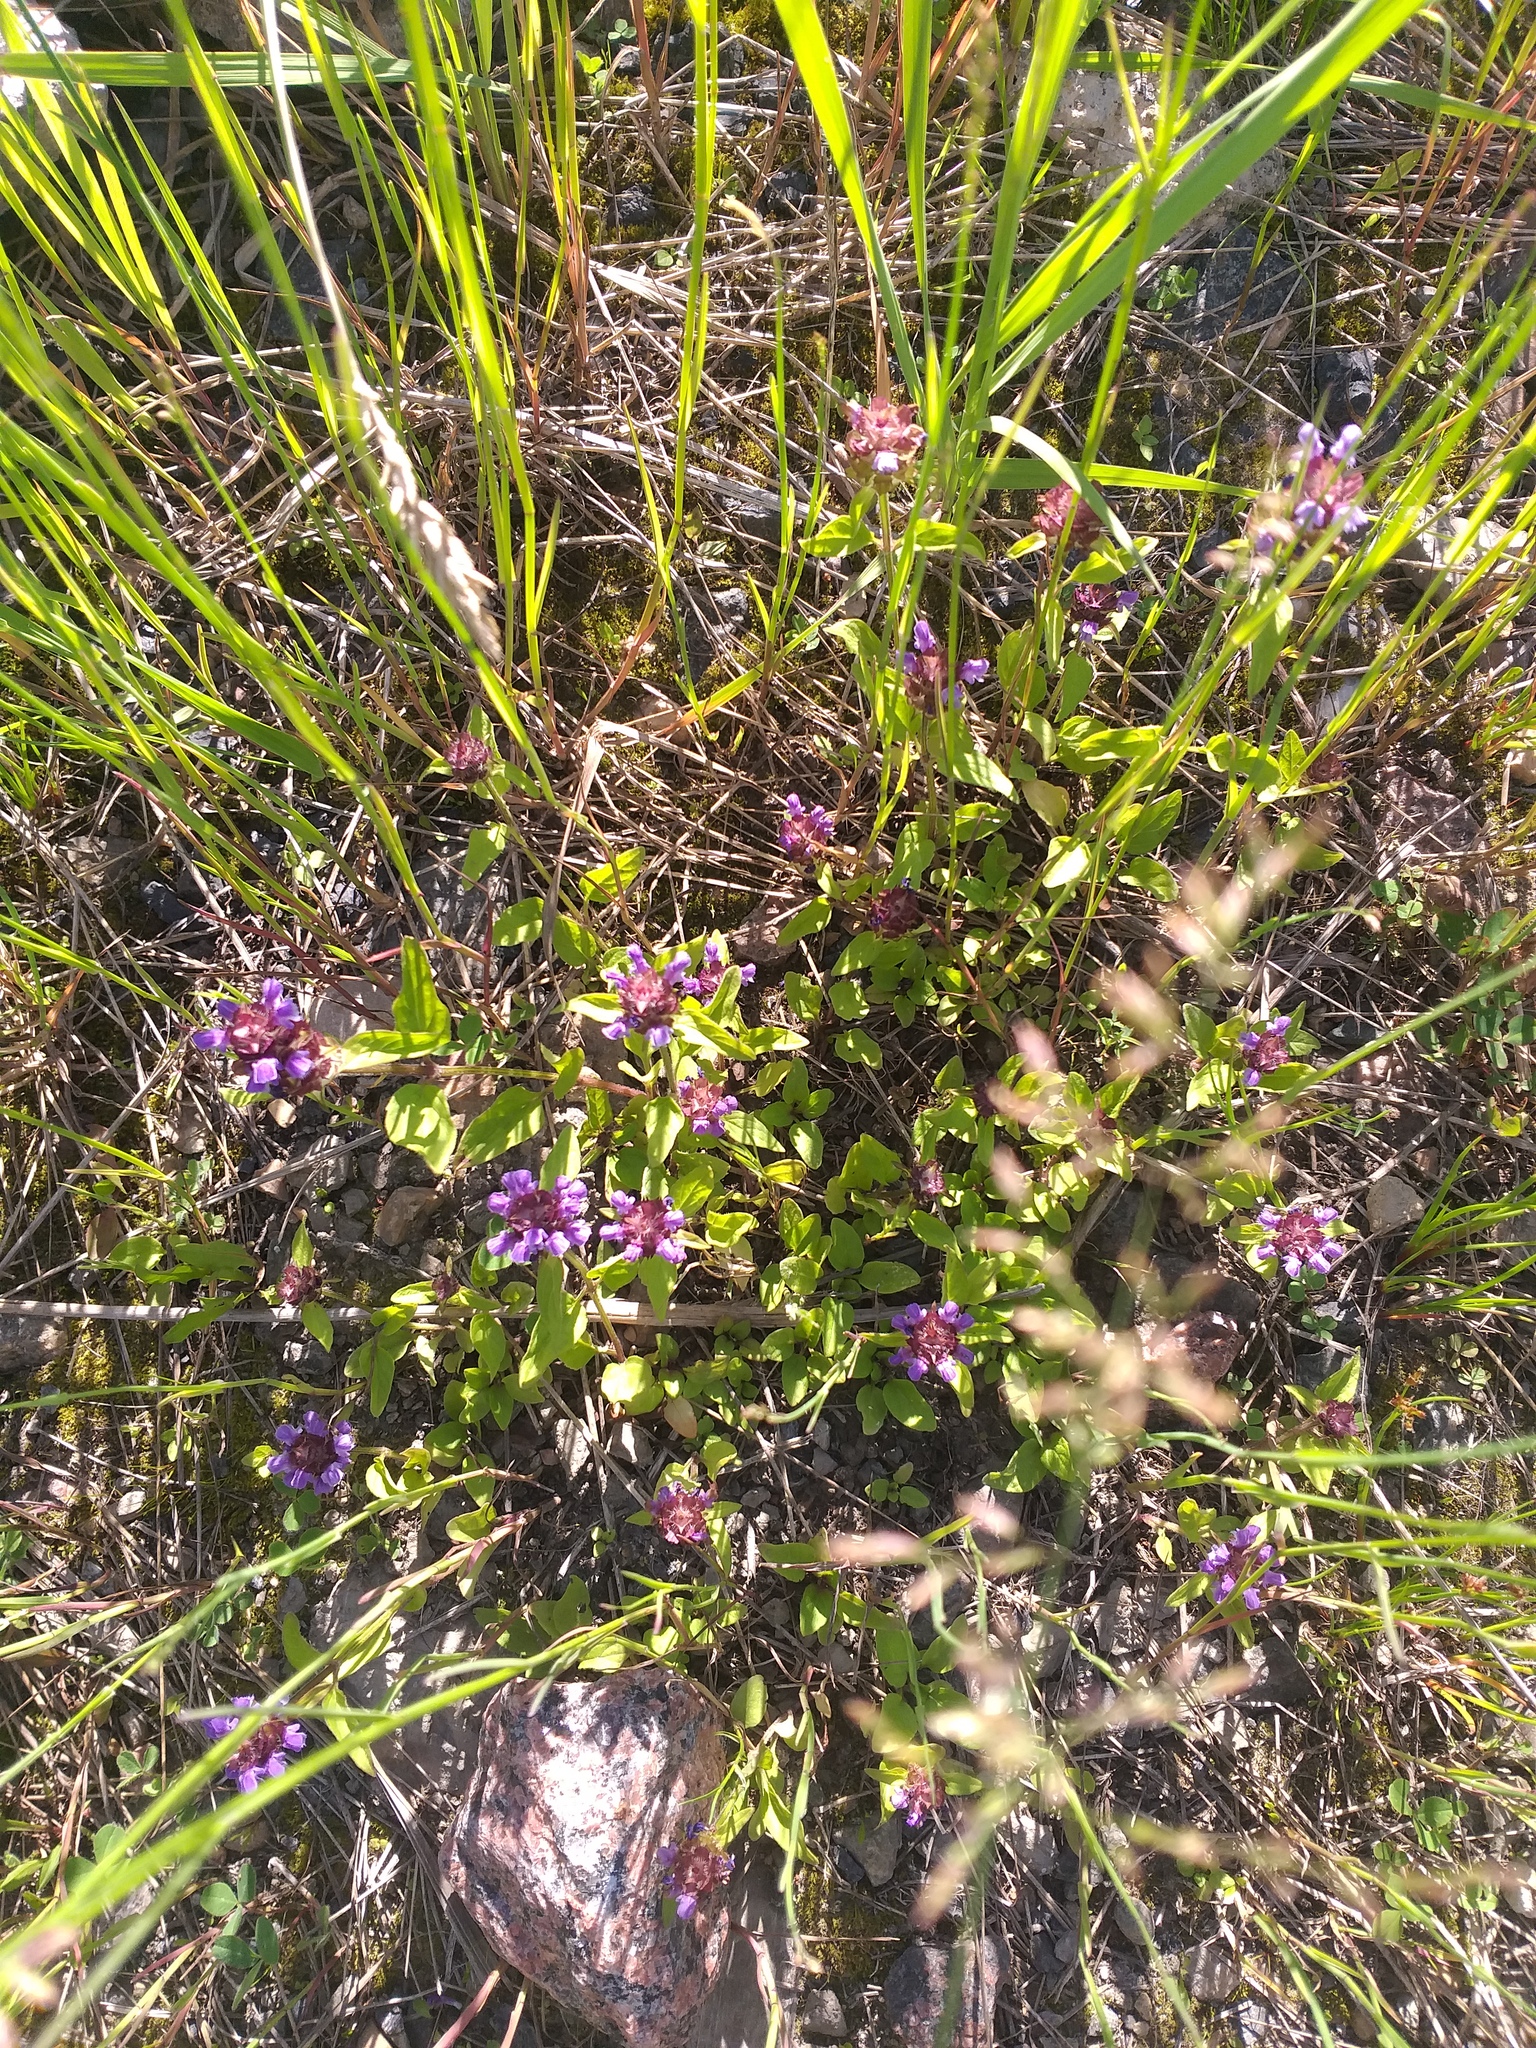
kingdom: Plantae
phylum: Tracheophyta
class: Magnoliopsida
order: Lamiales
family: Lamiaceae
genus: Prunella
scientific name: Prunella vulgaris
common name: Heal-all
